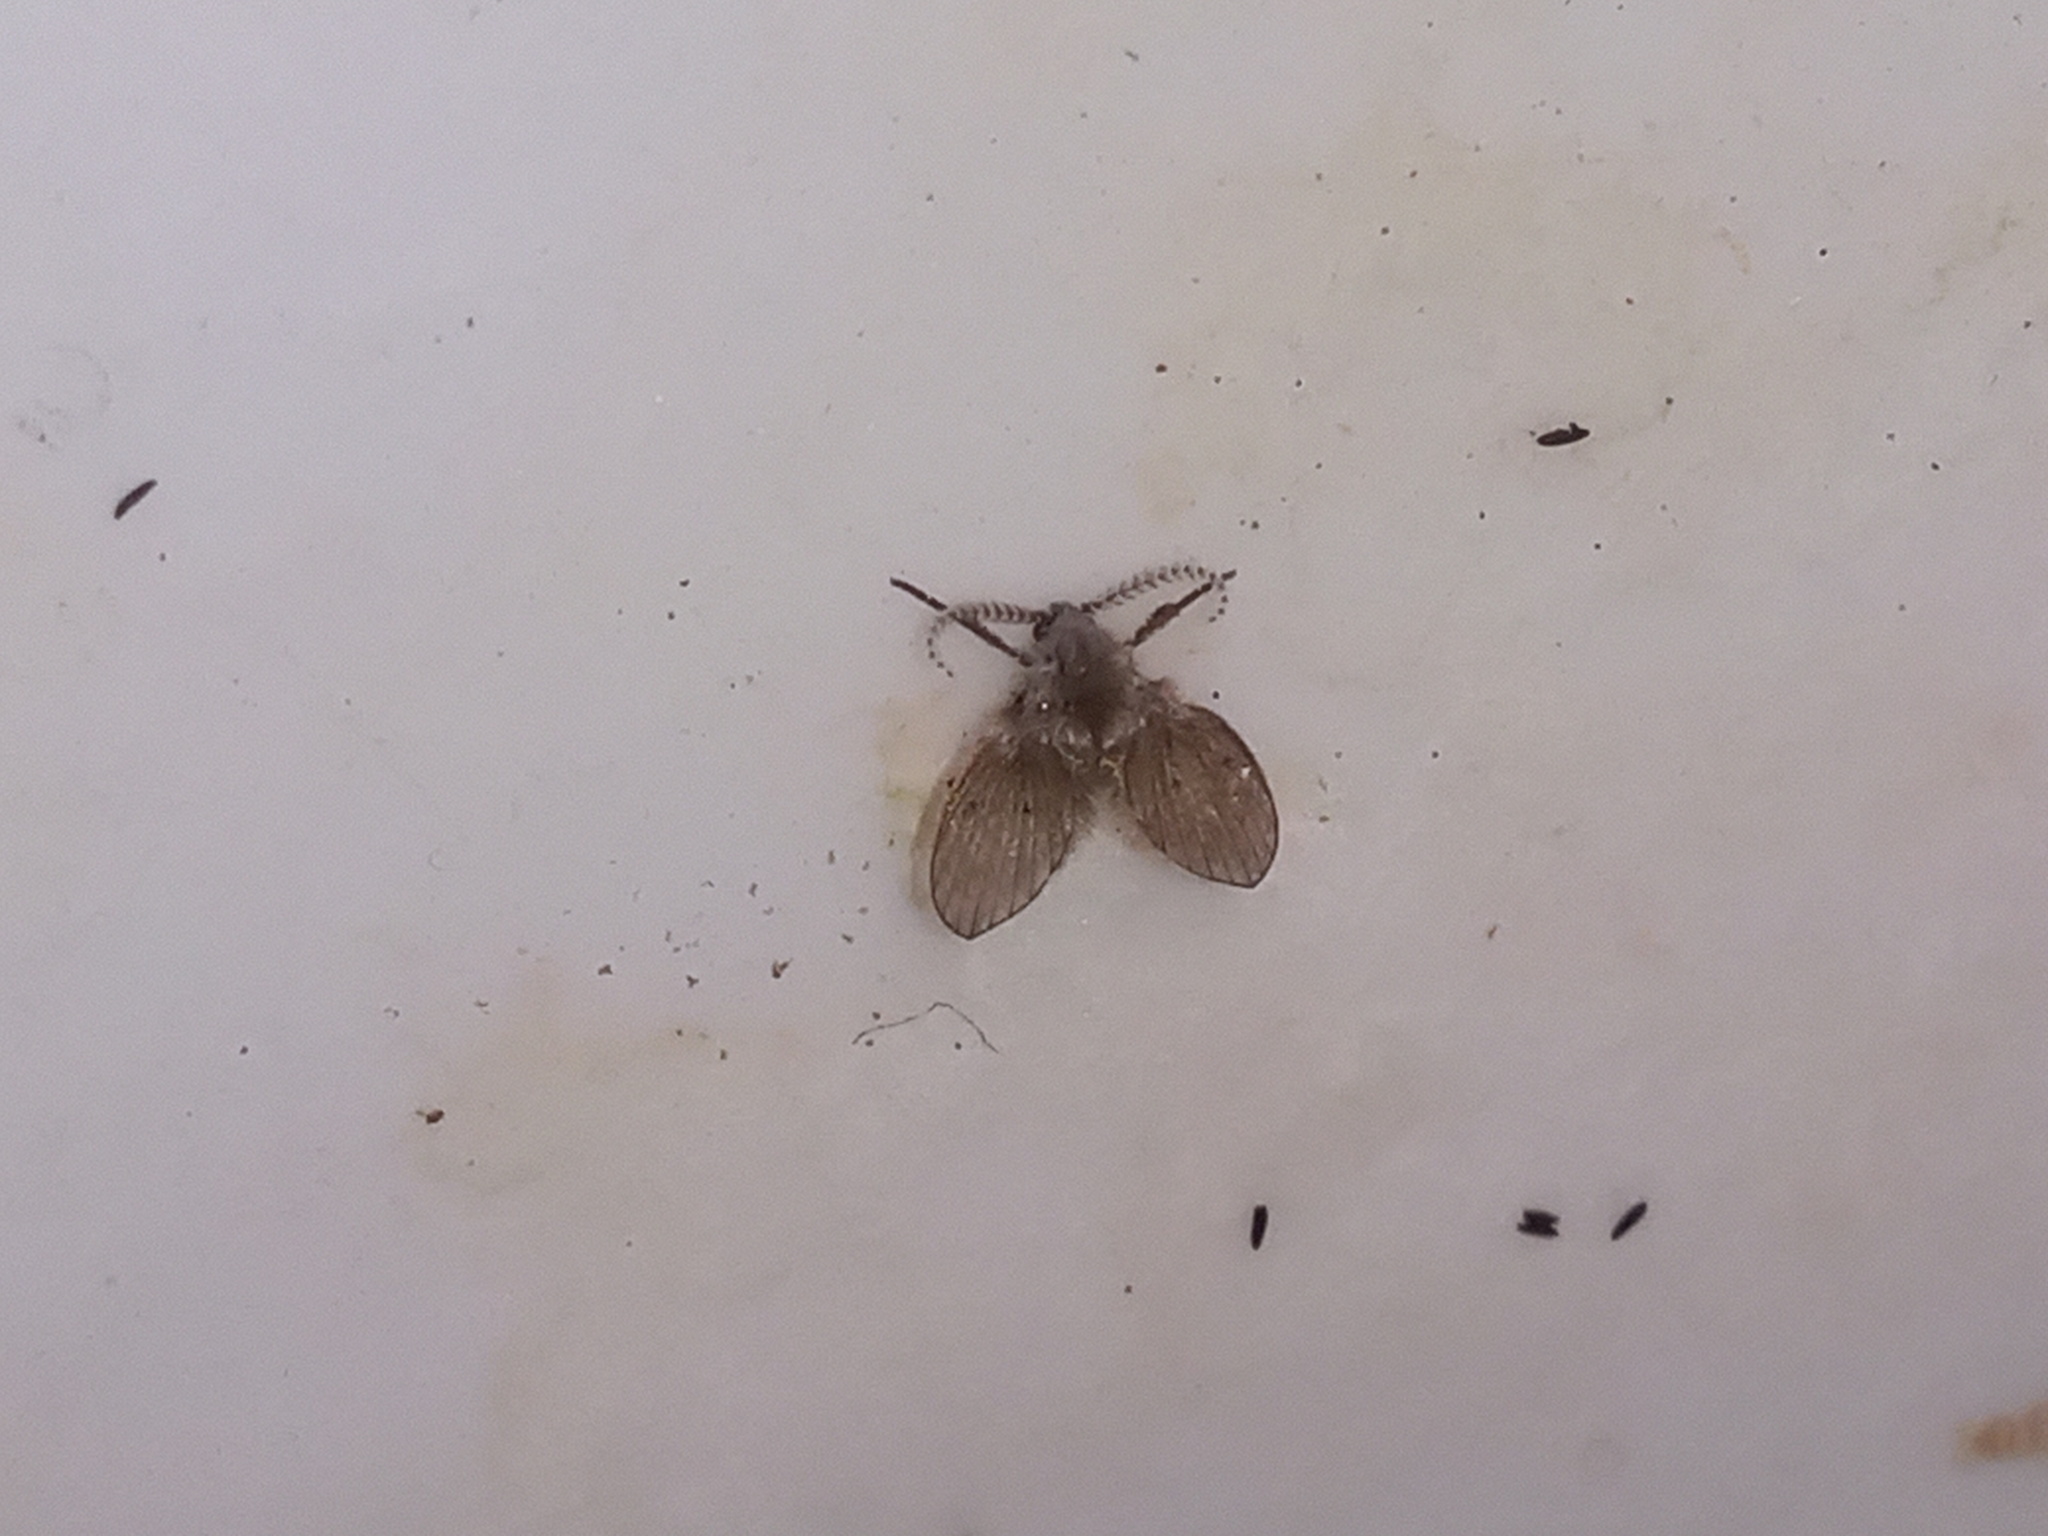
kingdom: Animalia
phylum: Arthropoda
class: Insecta
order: Diptera
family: Psychodidae
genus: Clogmia
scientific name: Clogmia albipunctatus
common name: White-spotted moth fly
